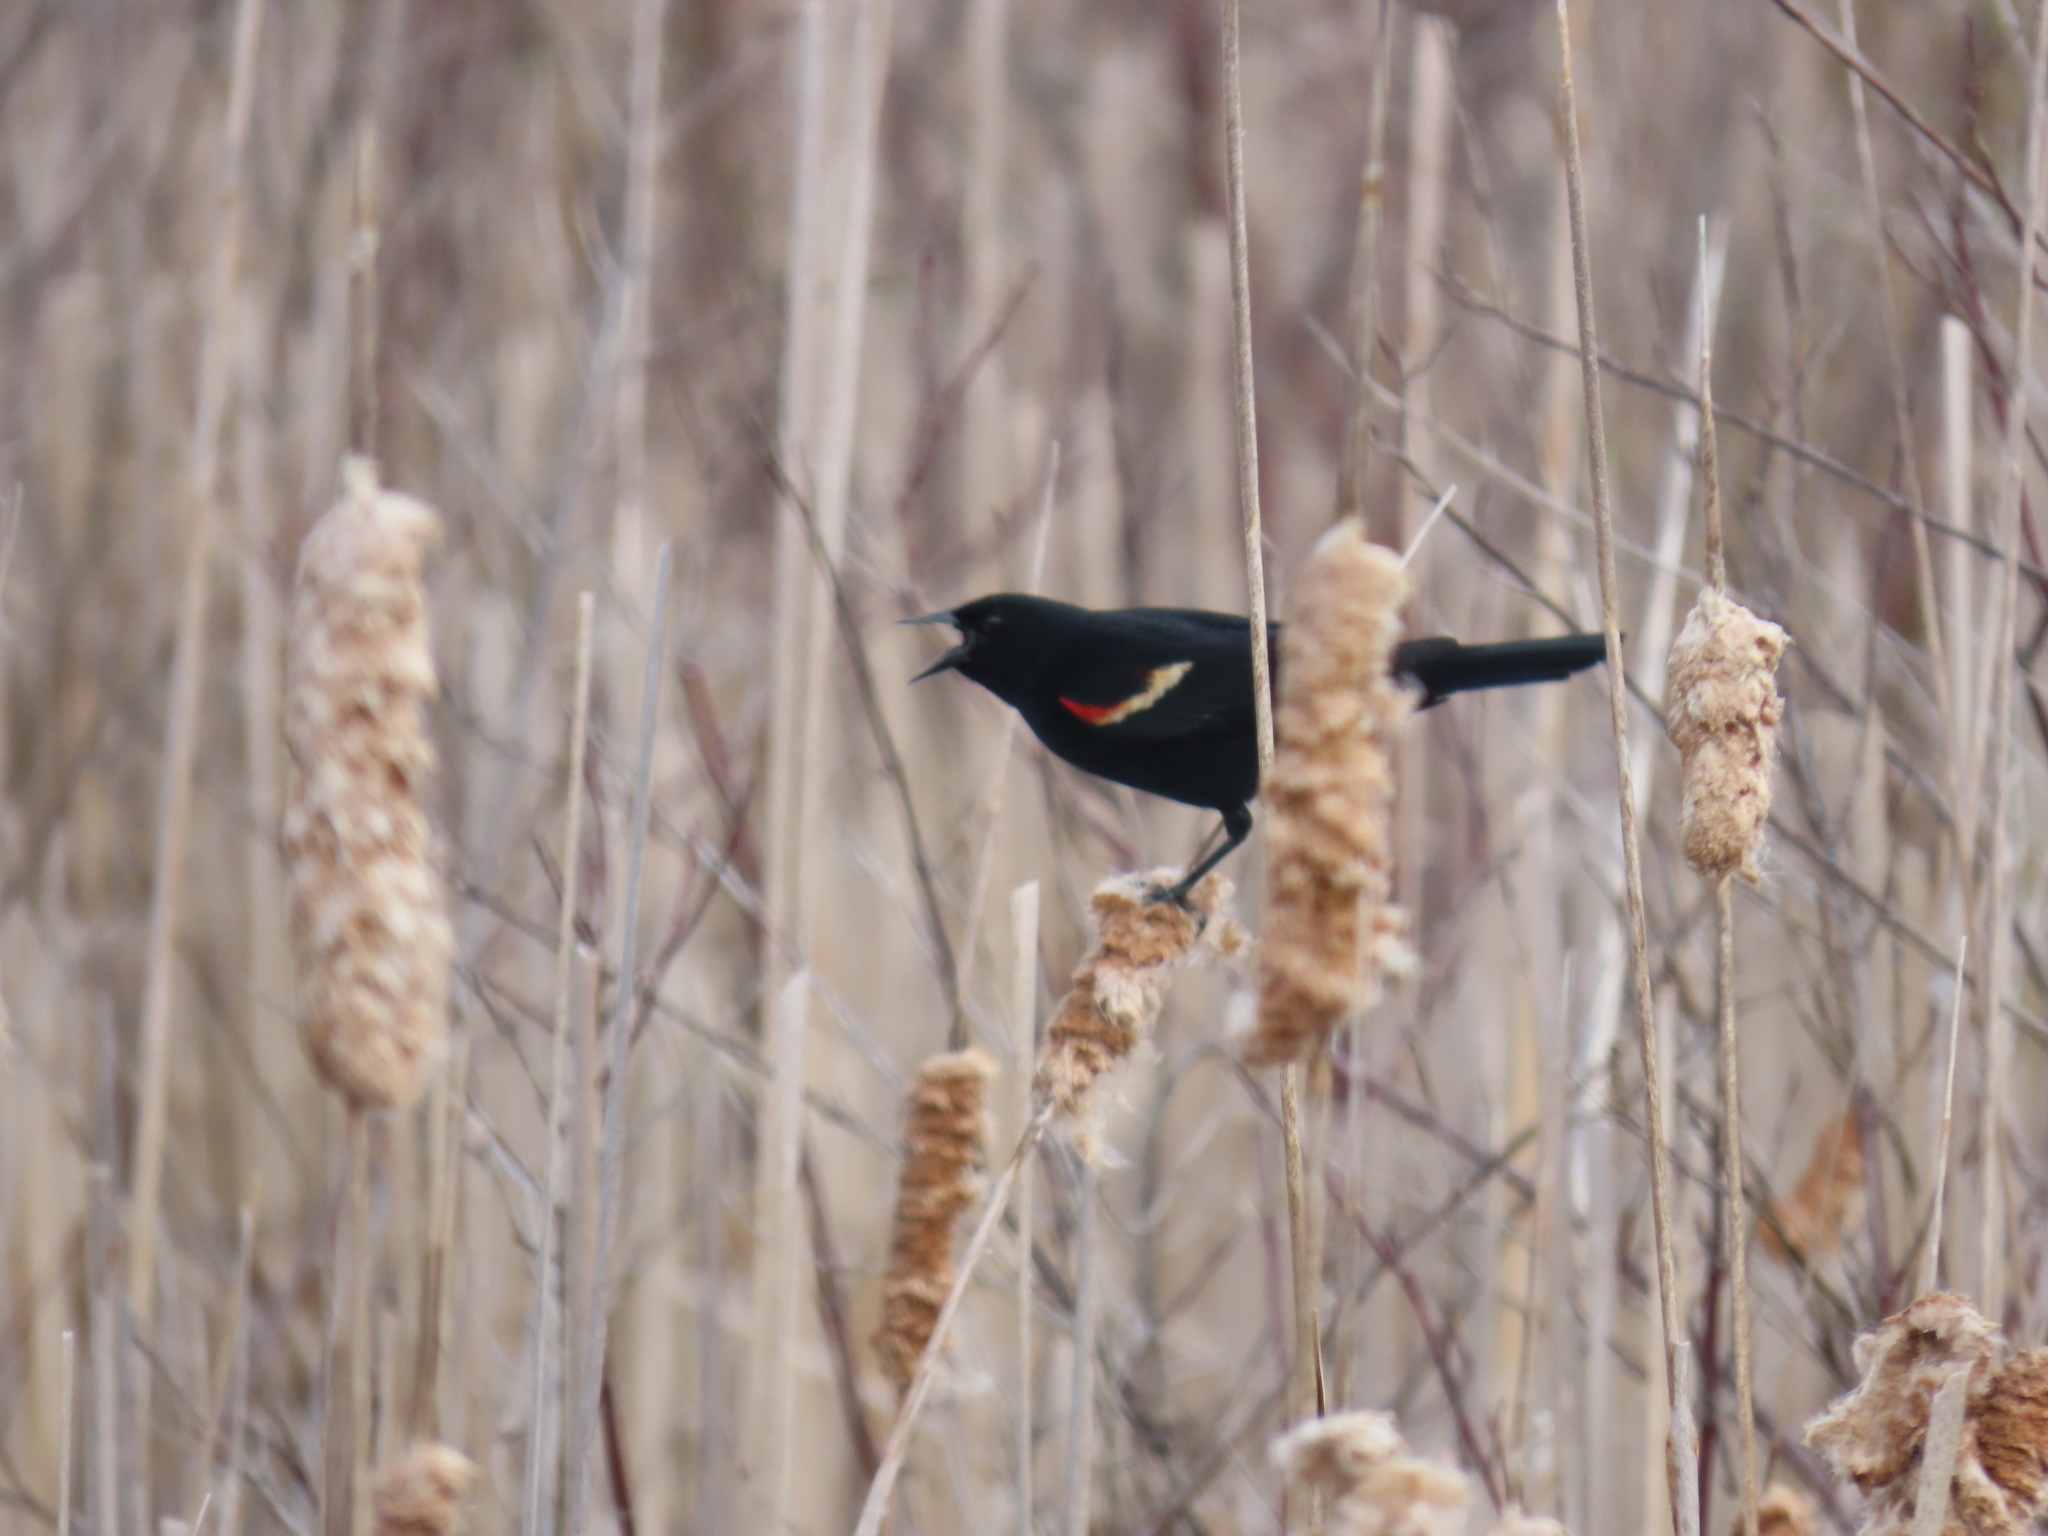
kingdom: Animalia
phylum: Chordata
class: Aves
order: Passeriformes
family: Icteridae
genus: Agelaius
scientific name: Agelaius phoeniceus
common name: Red-winged blackbird
